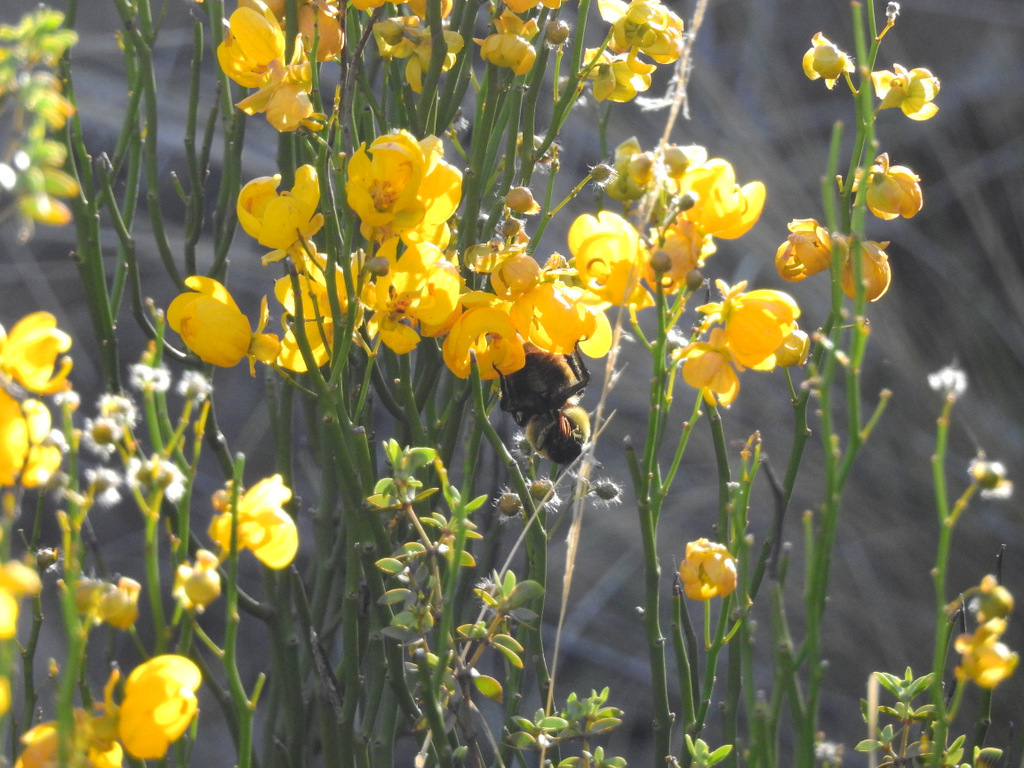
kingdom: Animalia
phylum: Arthropoda
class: Insecta
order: Hymenoptera
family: Apidae
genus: Bombus
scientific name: Bombus opifex
